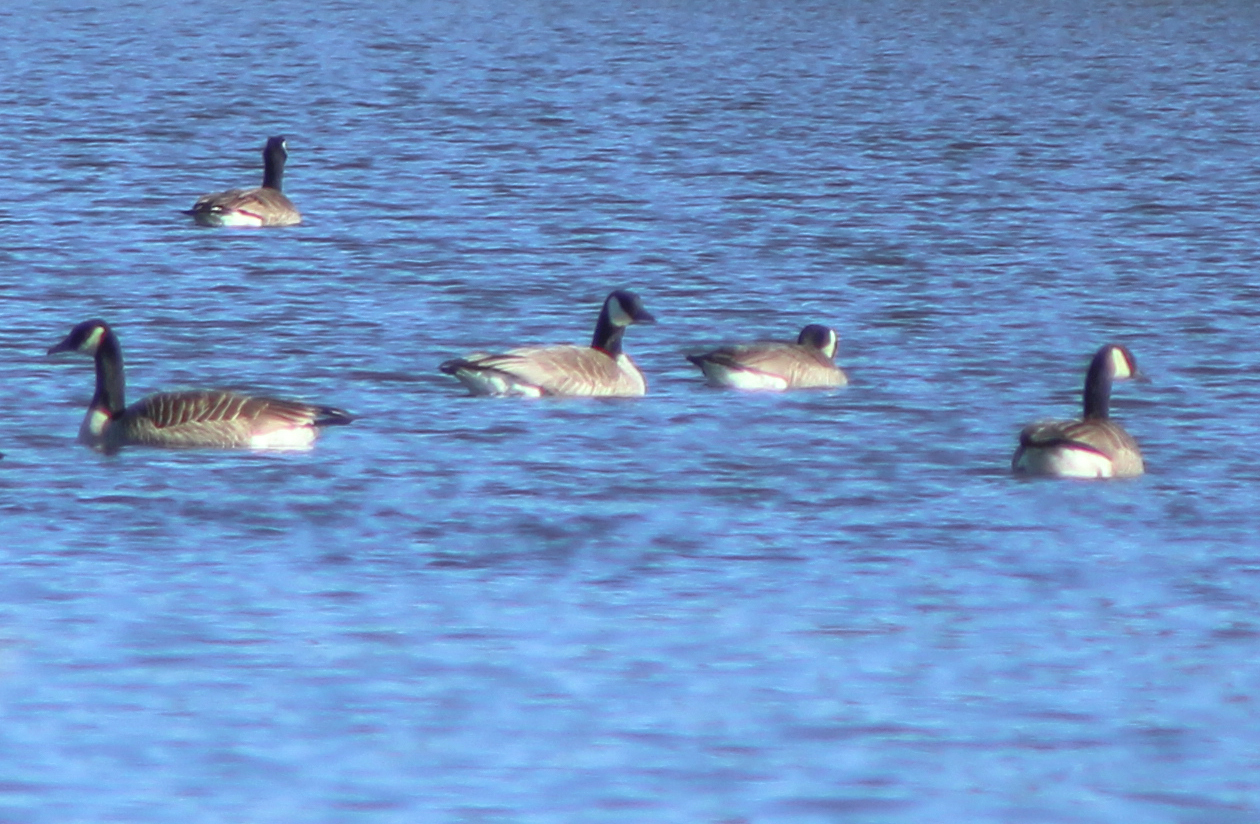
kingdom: Animalia
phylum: Chordata
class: Aves
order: Anseriformes
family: Anatidae
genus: Branta
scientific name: Branta canadensis
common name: Canada goose
